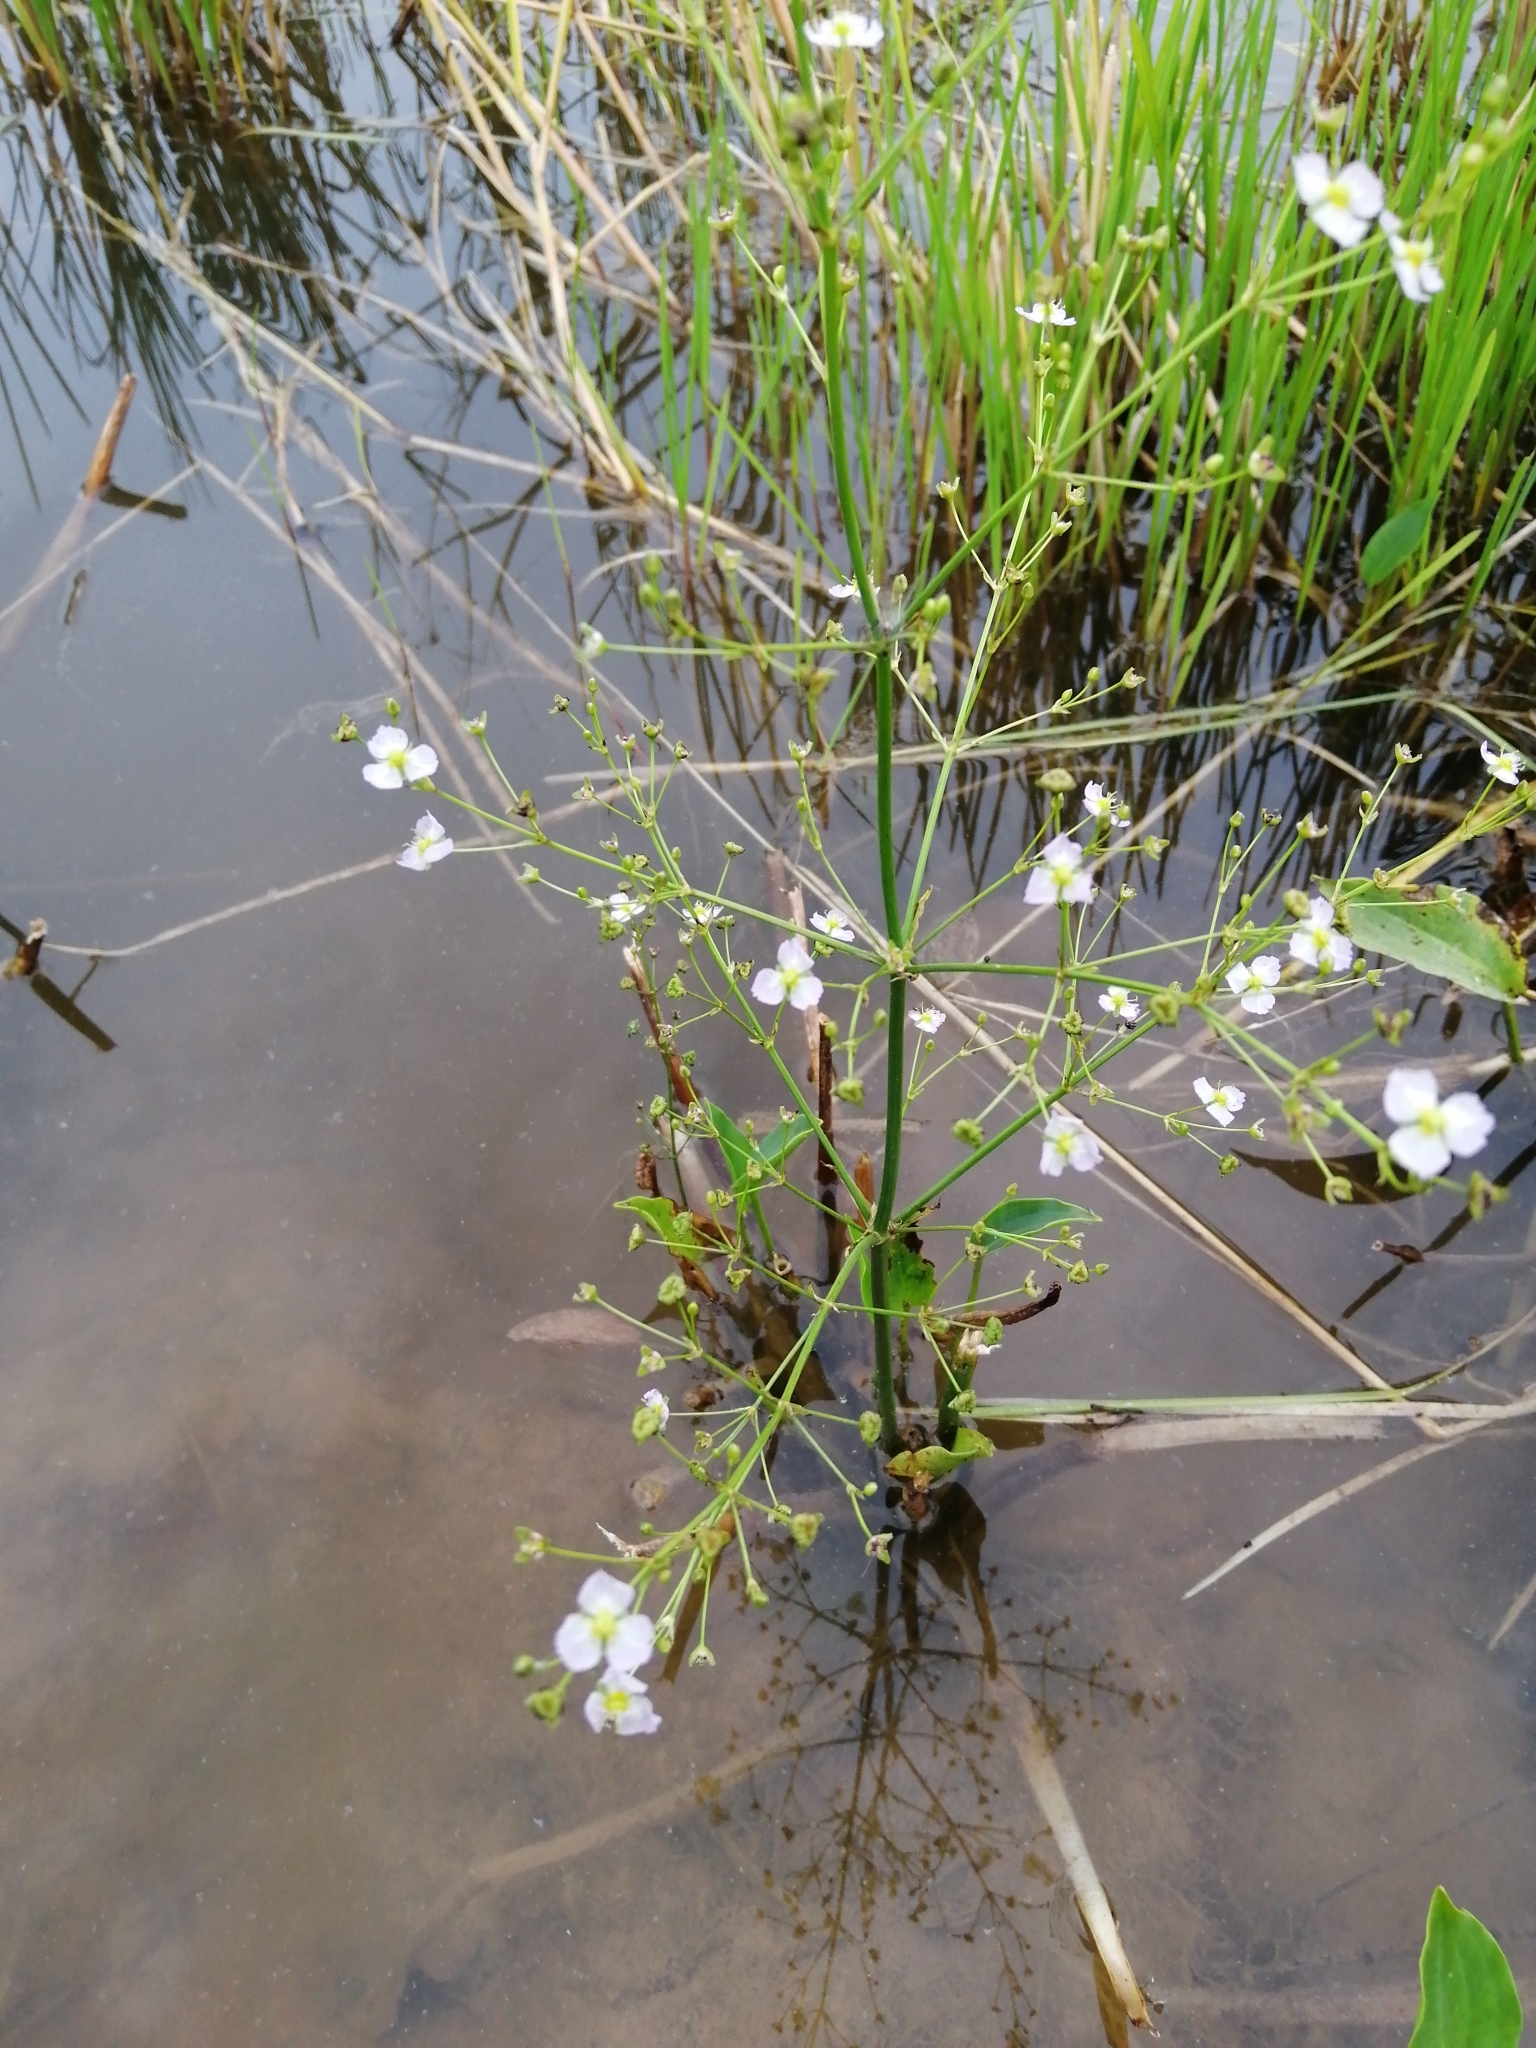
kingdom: Plantae
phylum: Tracheophyta
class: Liliopsida
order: Alismatales
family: Alismataceae
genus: Alisma
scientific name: Alisma plantago-aquatica
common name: Water-plantain
